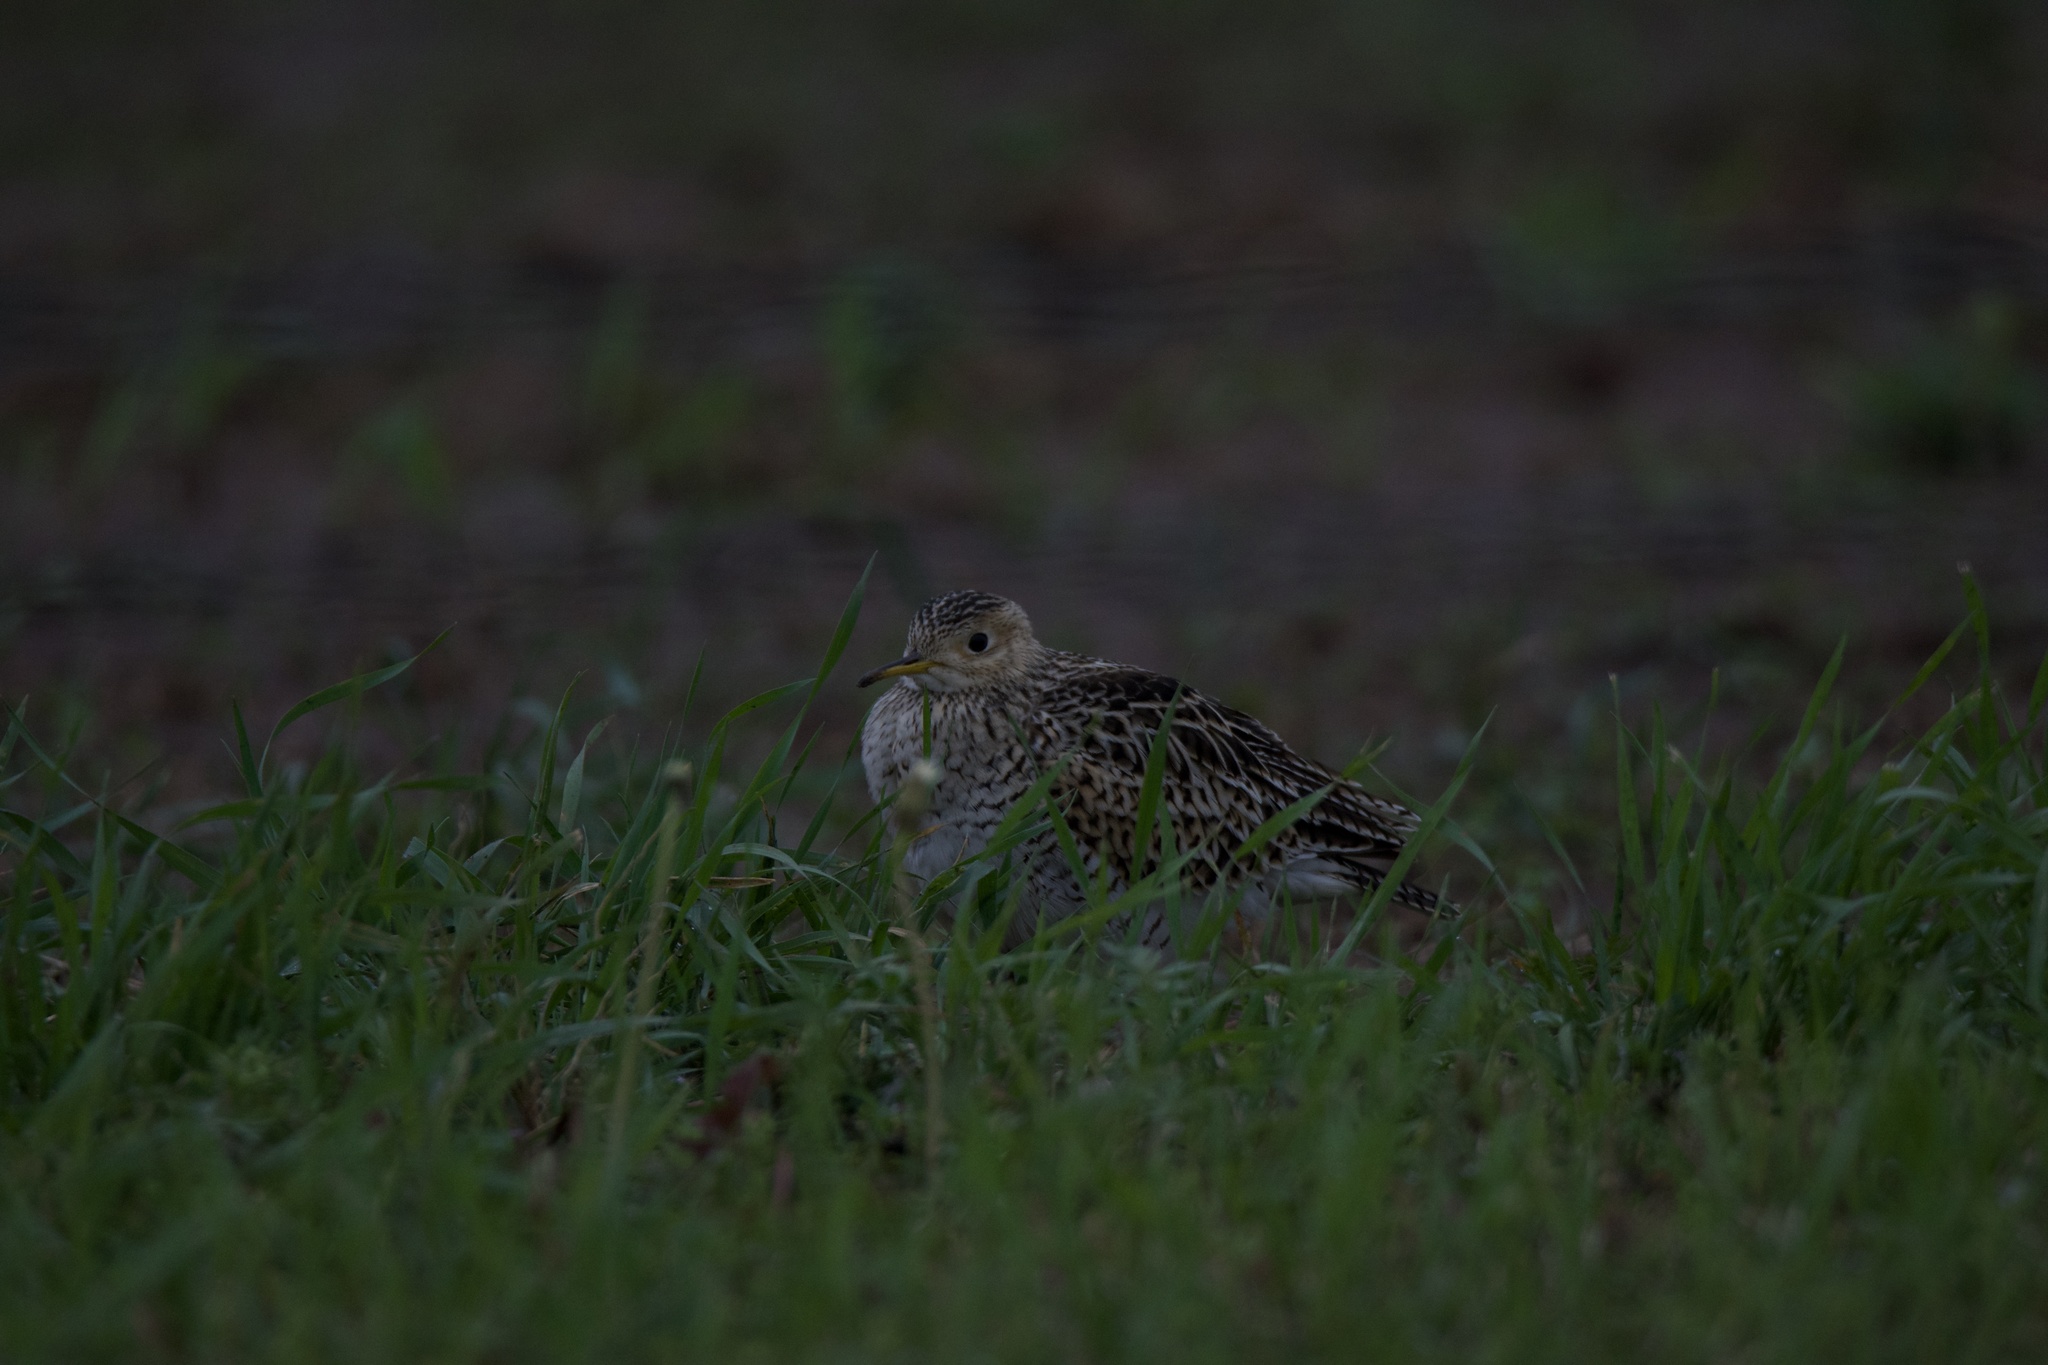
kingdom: Animalia
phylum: Chordata
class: Aves
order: Charadriiformes
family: Scolopacidae
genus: Bartramia
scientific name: Bartramia longicauda
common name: Upland sandpiper
